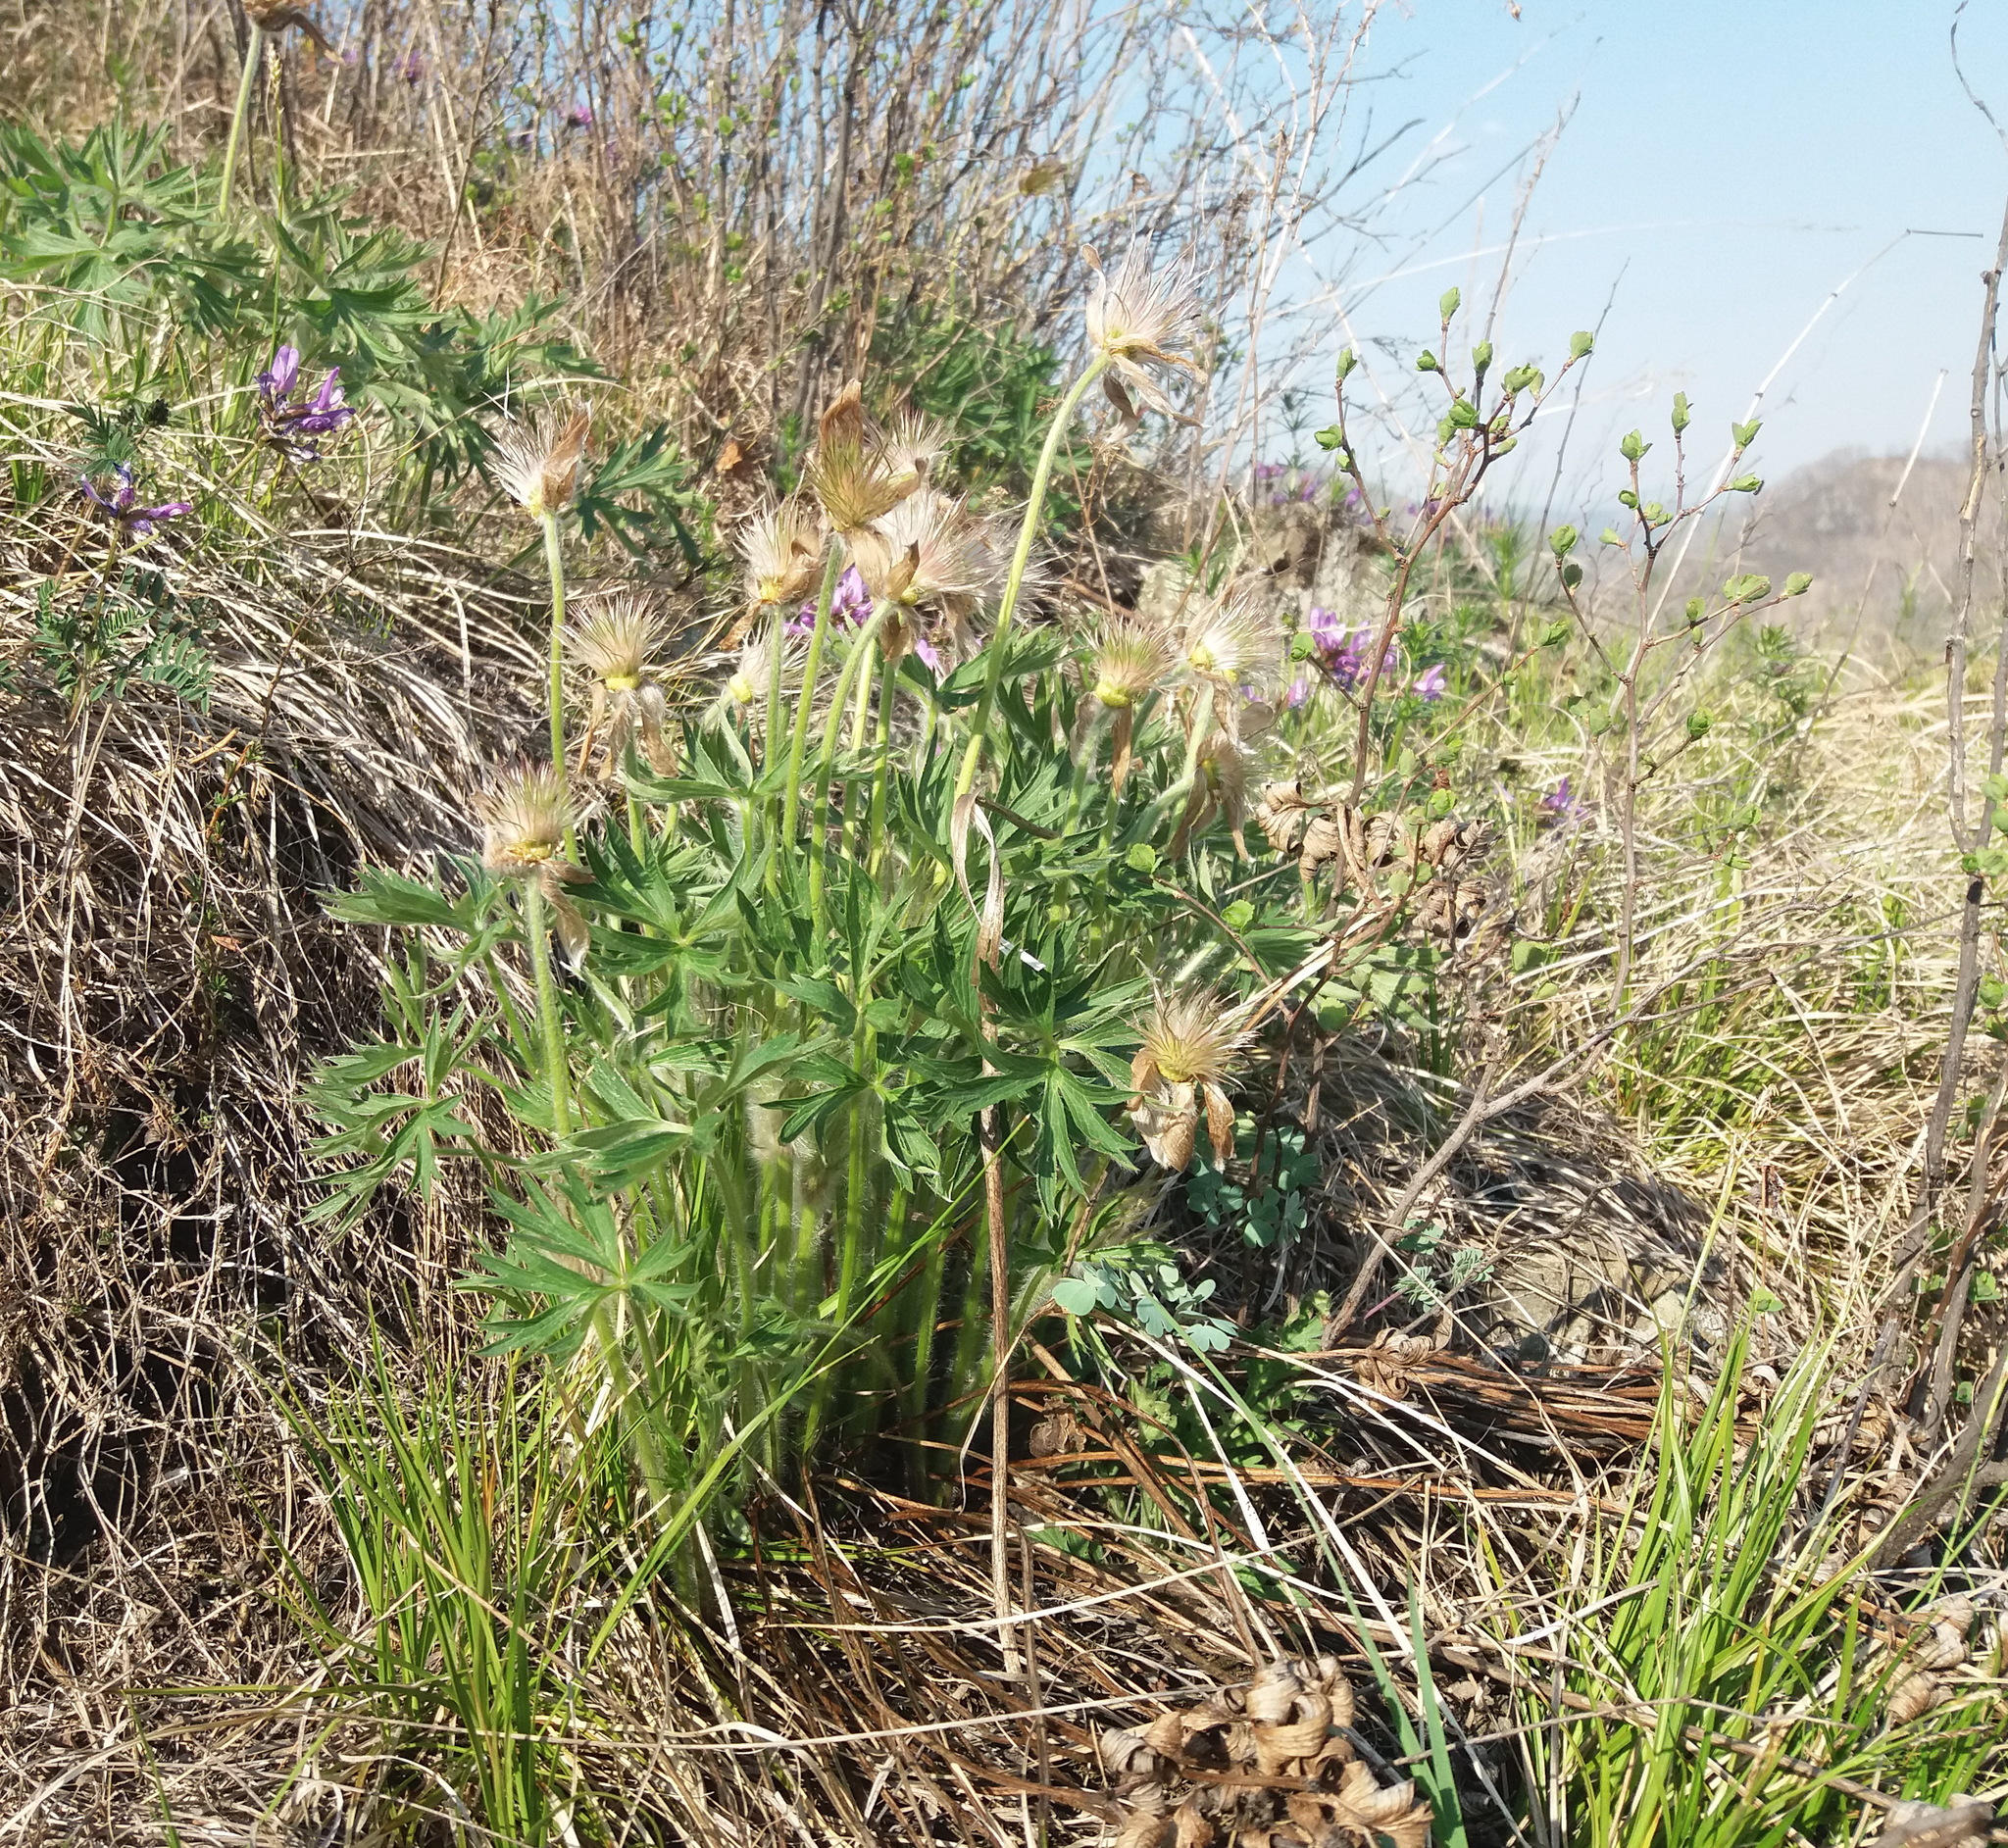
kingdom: Plantae
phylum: Tracheophyta
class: Magnoliopsida
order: Ranunculales
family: Ranunculaceae
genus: Pulsatilla
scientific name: Pulsatilla patens
